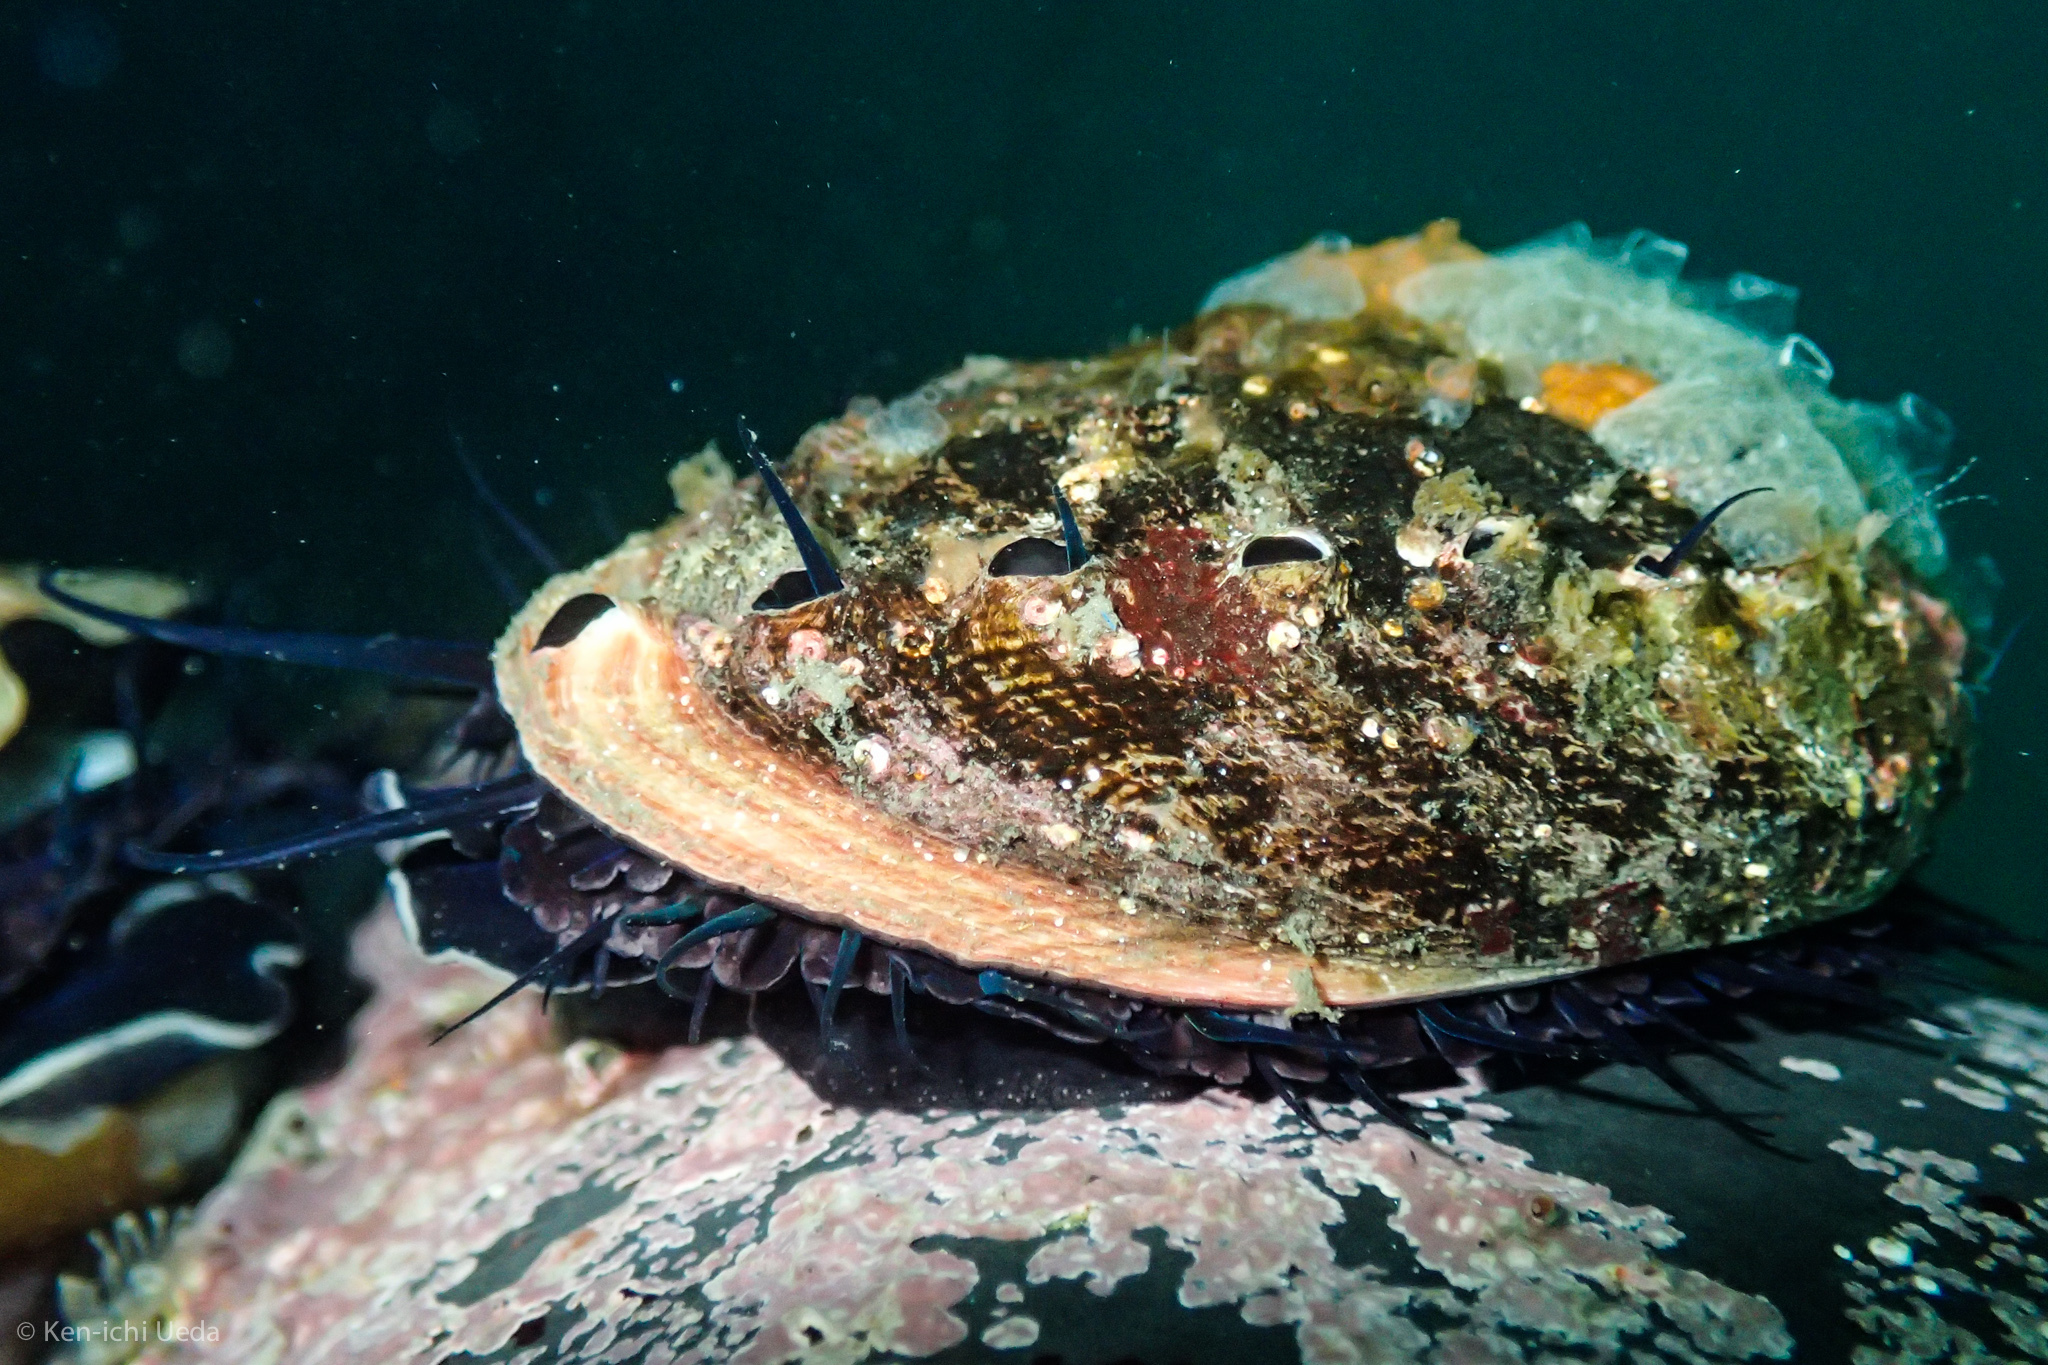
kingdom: Animalia
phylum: Mollusca
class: Gastropoda
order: Lepetellida
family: Haliotidae
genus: Haliotis
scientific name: Haliotis rufescens
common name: Red abalone
